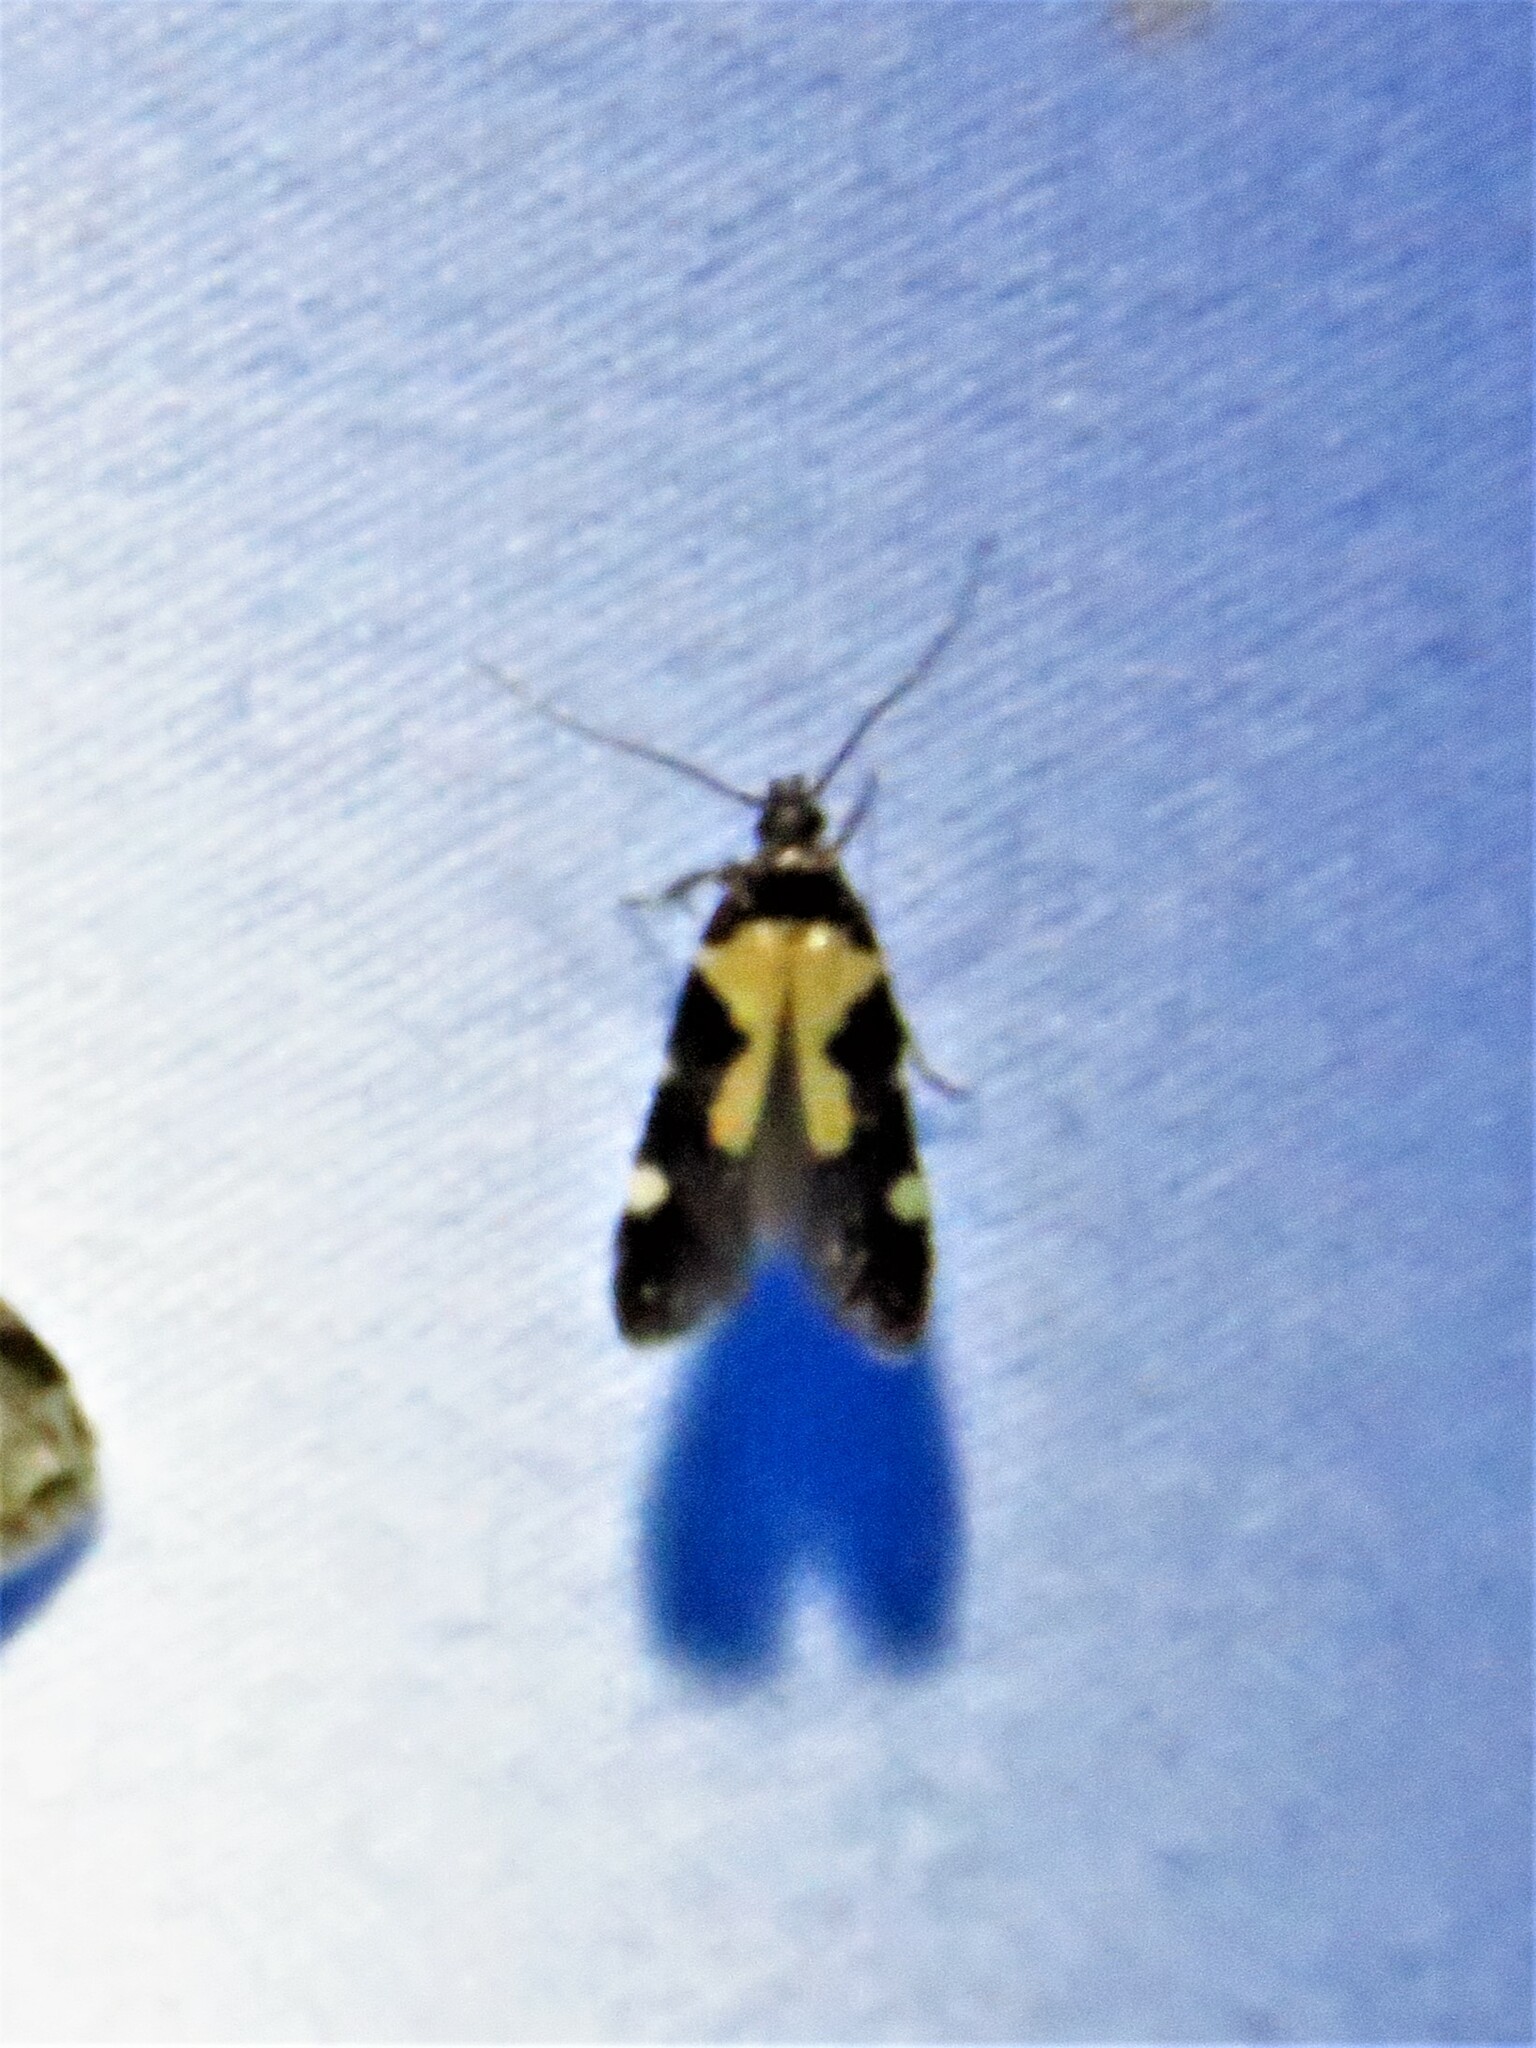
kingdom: Animalia
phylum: Arthropoda
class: Insecta
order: Lepidoptera
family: Gelechiidae
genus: Stegasta
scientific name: Stegasta bosqueella
